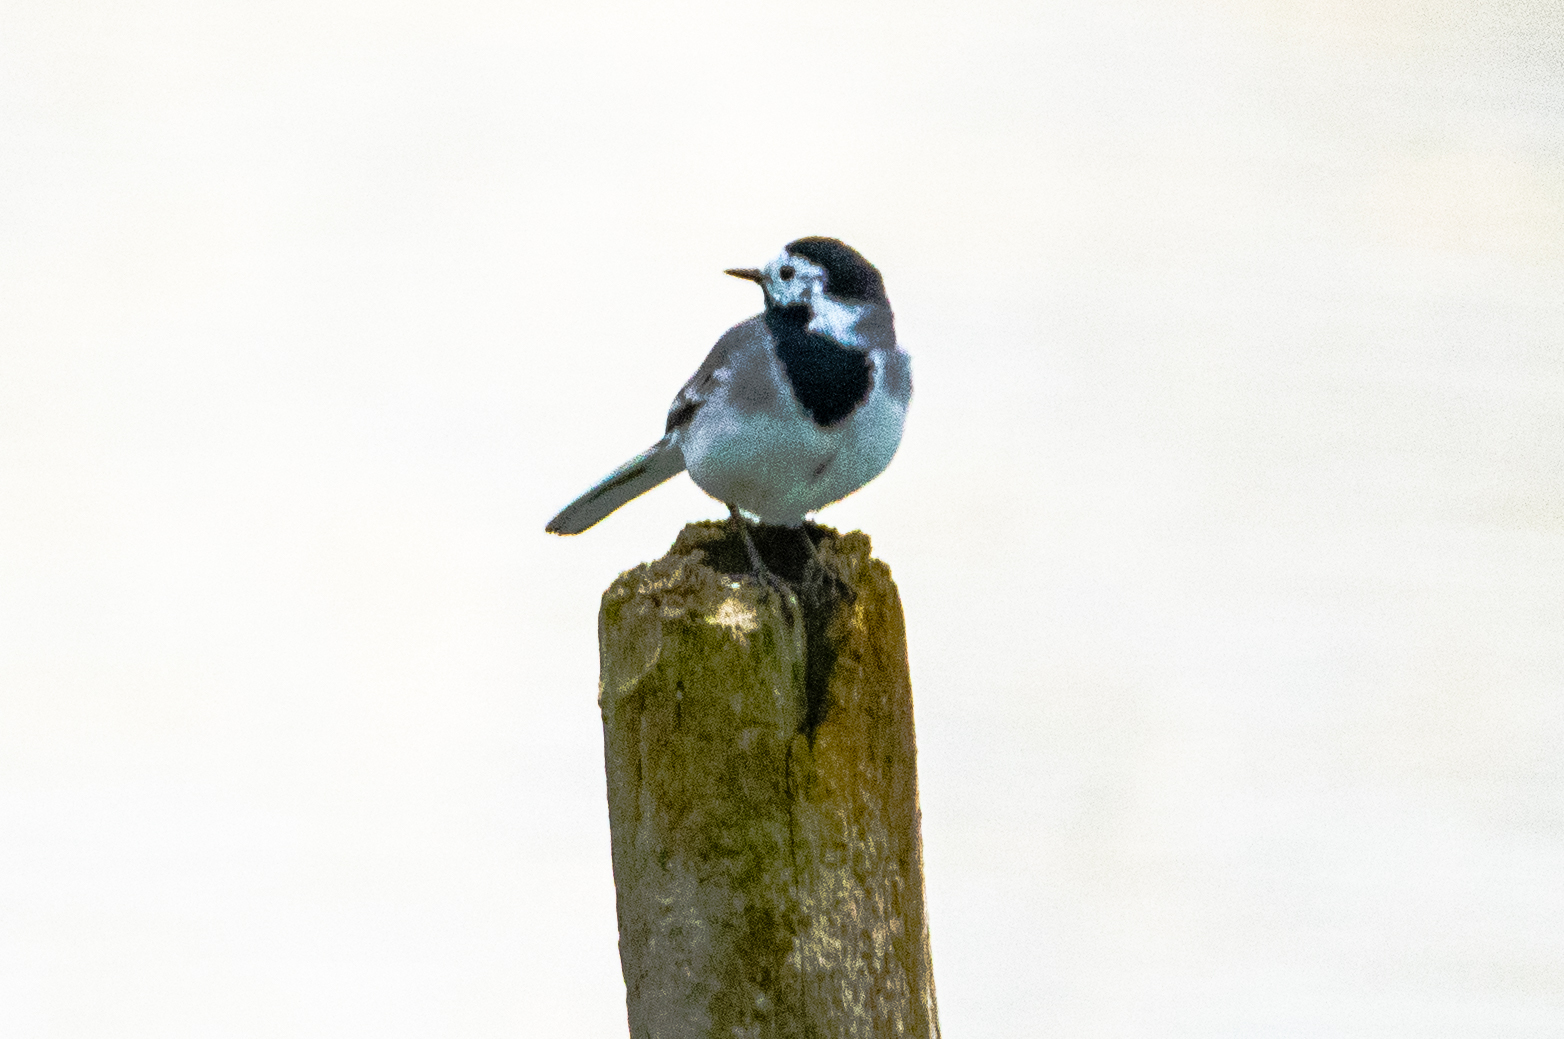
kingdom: Animalia
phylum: Chordata
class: Aves
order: Passeriformes
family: Motacillidae
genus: Motacilla
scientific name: Motacilla alba
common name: White wagtail
